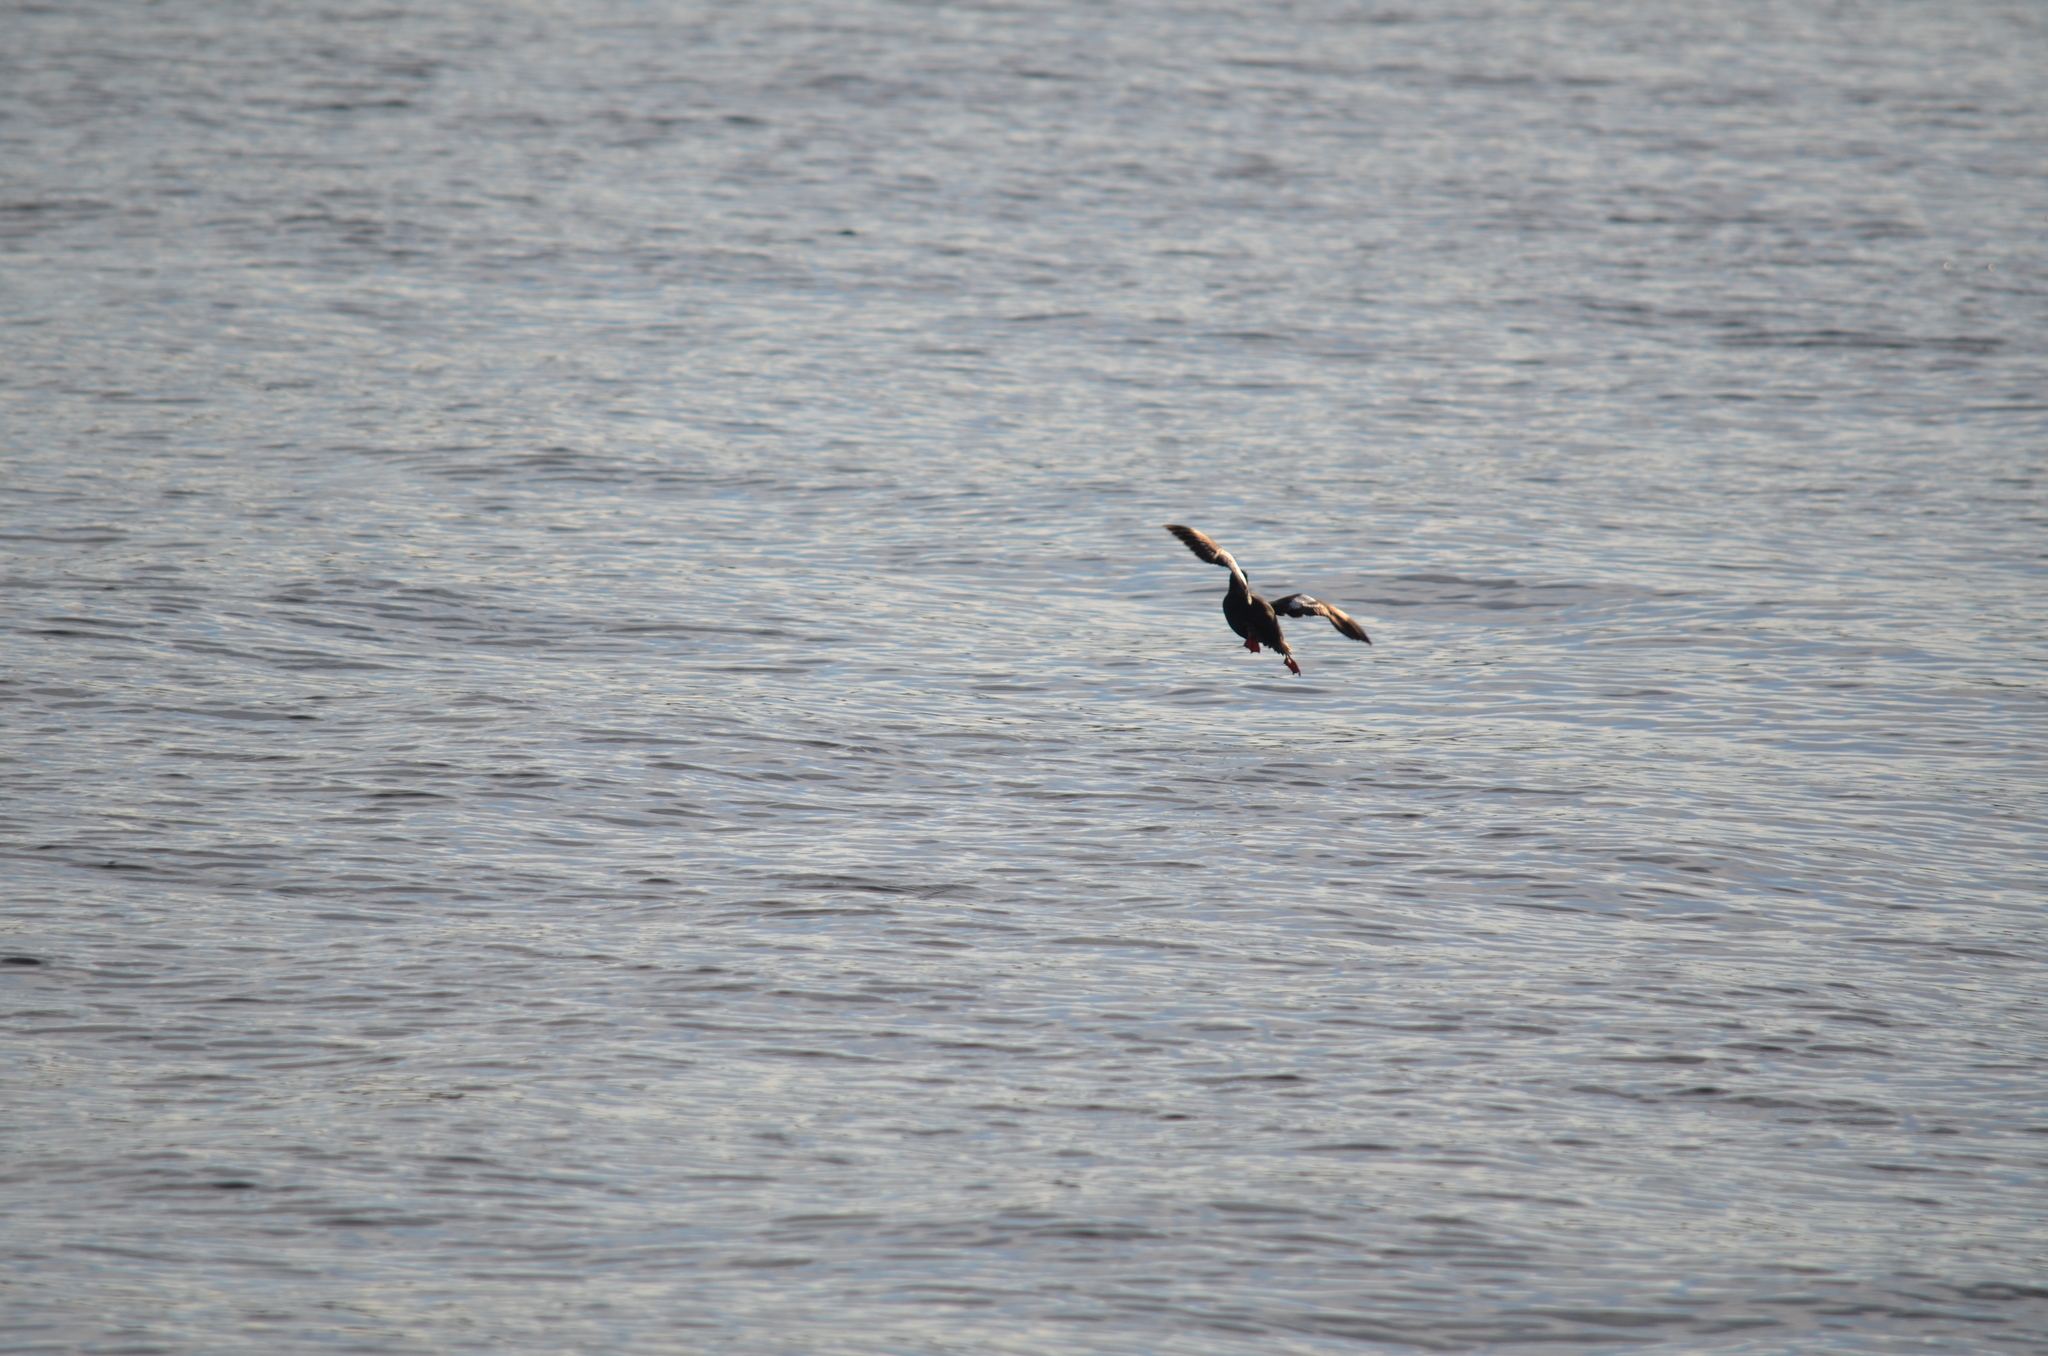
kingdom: Animalia
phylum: Chordata
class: Aves
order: Charadriiformes
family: Alcidae
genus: Cepphus
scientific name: Cepphus columba
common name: Pigeon guillemot
